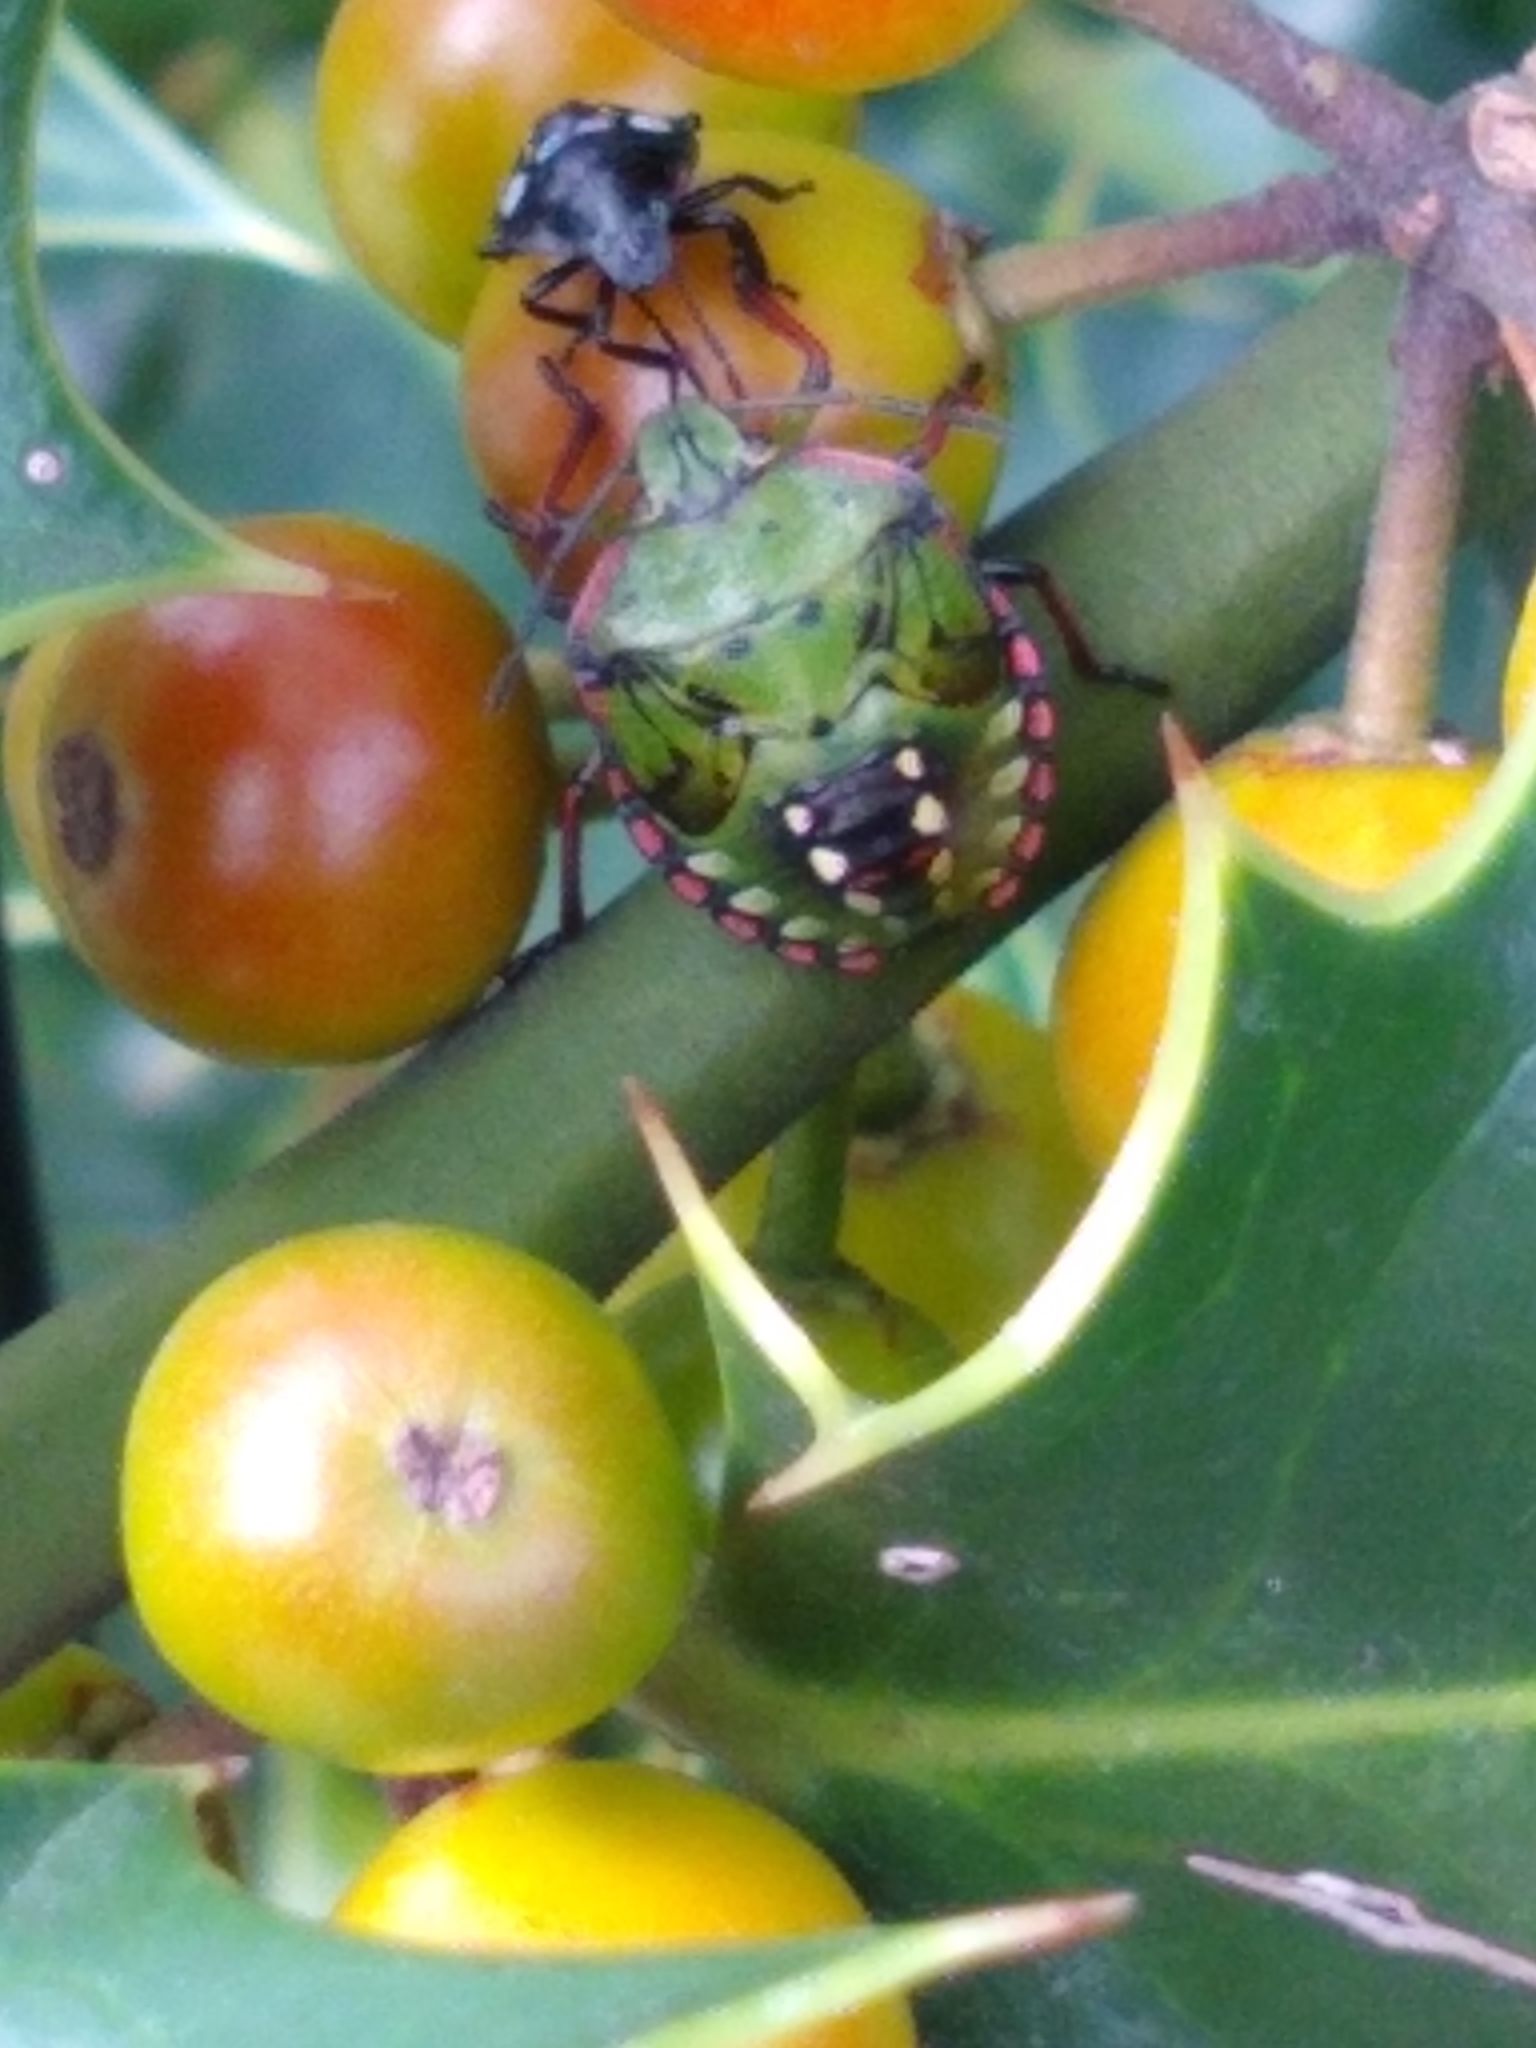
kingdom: Animalia
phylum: Arthropoda
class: Insecta
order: Hemiptera
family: Pentatomidae
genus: Nezara
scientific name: Nezara viridula
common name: Southern green stink bug
